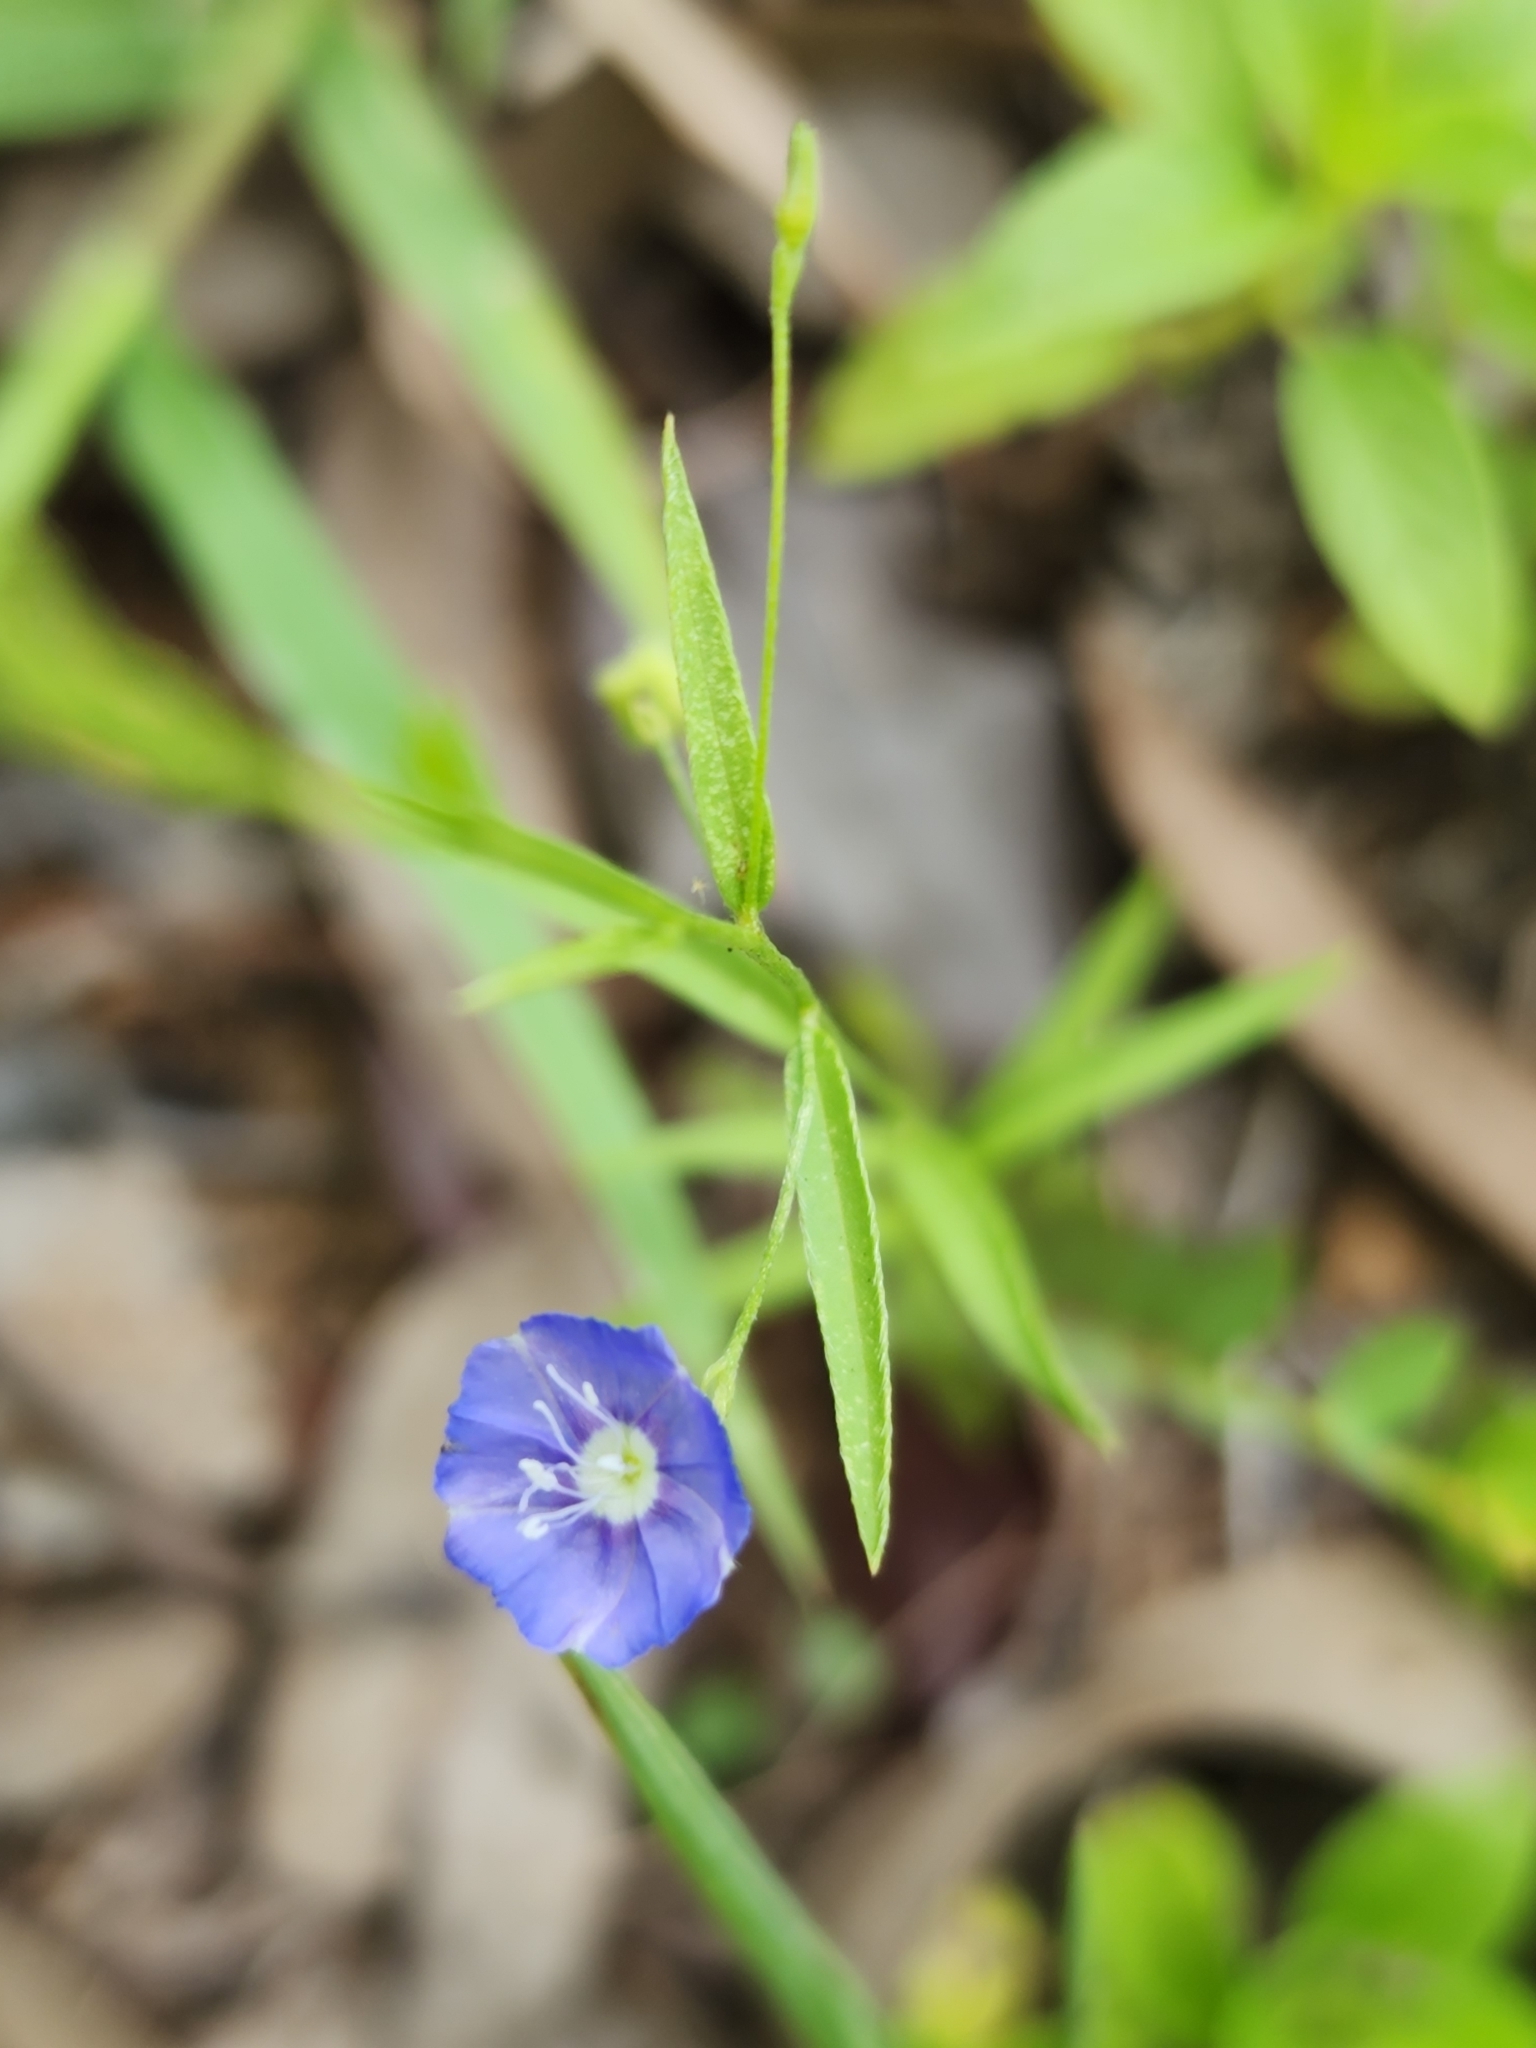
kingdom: Plantae
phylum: Tracheophyta
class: Magnoliopsida
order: Solanales
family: Convolvulaceae
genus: Evolvulus
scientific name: Evolvulus alsinoides
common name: Slender dwarf morning-glory
